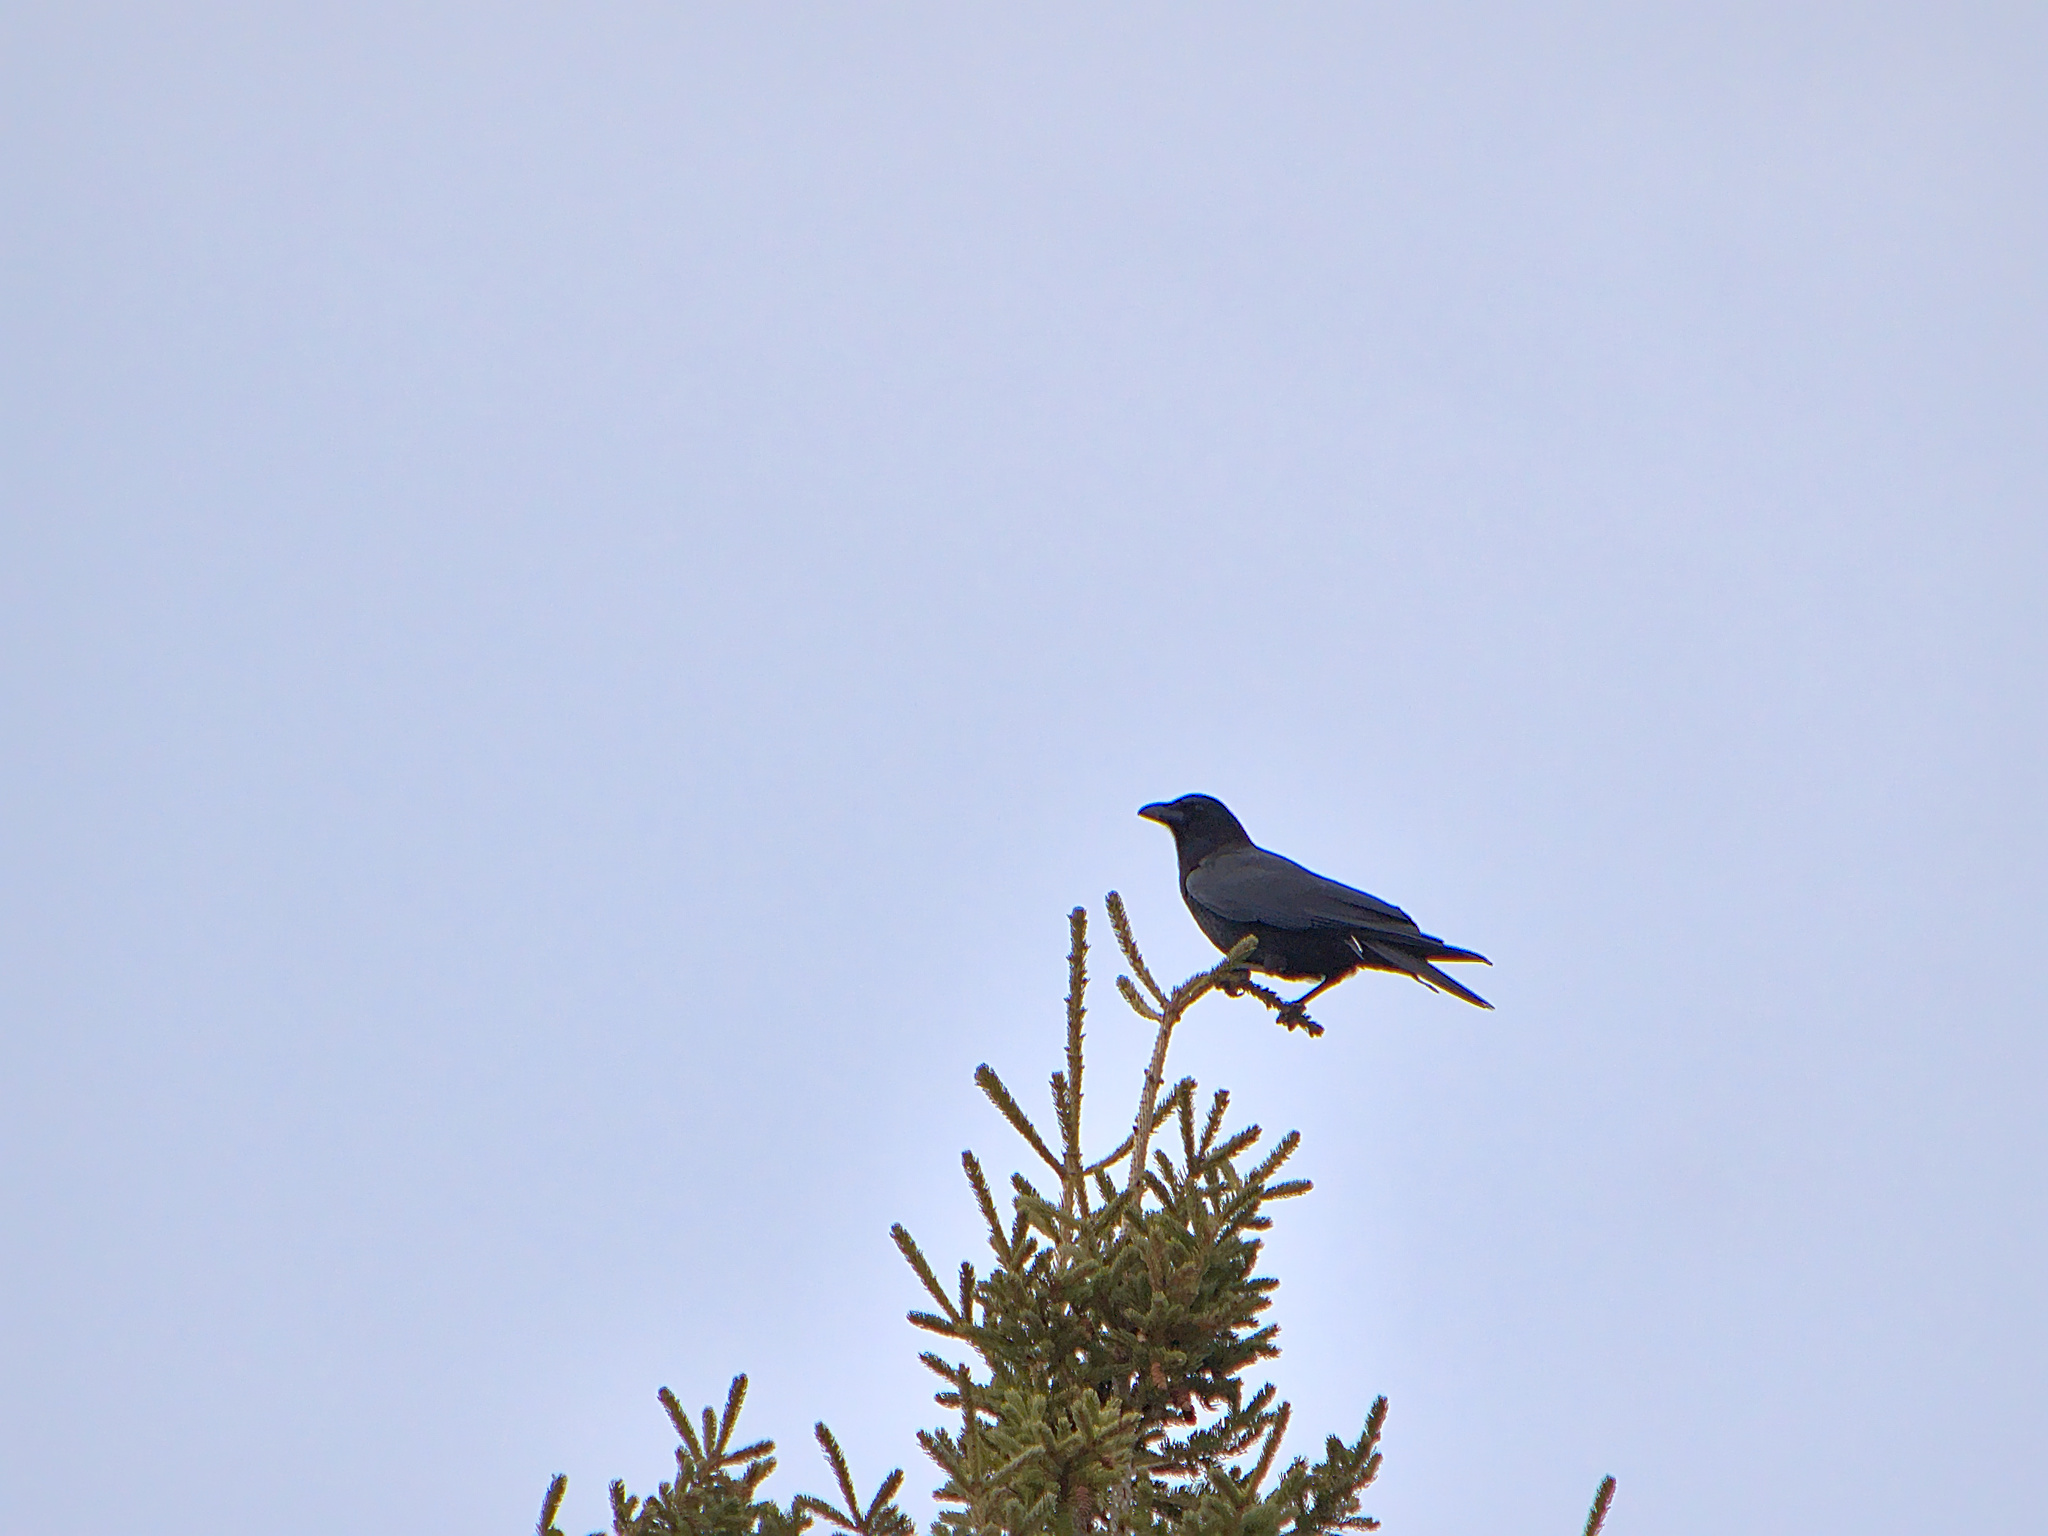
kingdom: Animalia
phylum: Chordata
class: Aves
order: Passeriformes
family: Corvidae
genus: Corvus
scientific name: Corvus brachyrhynchos
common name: American crow
